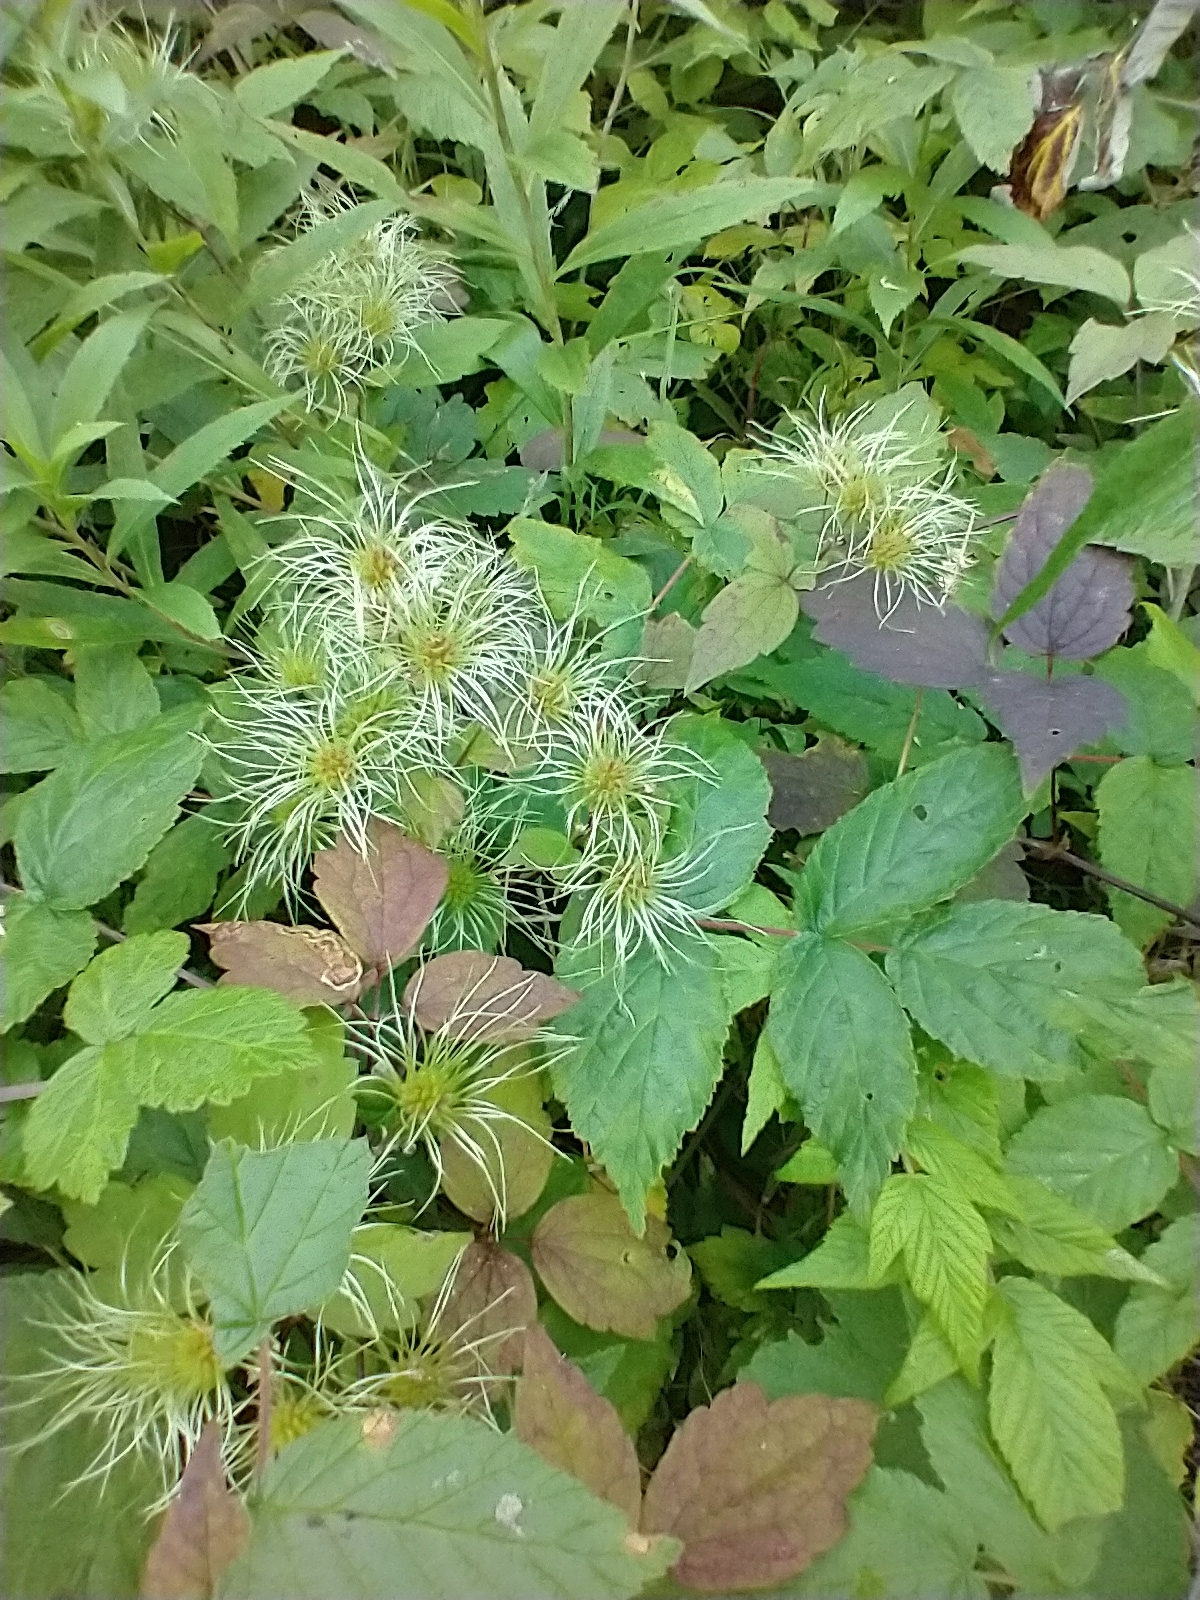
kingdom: Plantae
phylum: Tracheophyta
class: Magnoliopsida
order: Ranunculales
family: Ranunculaceae
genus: Clematis
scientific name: Clematis virginiana
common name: Virgin's-bower
